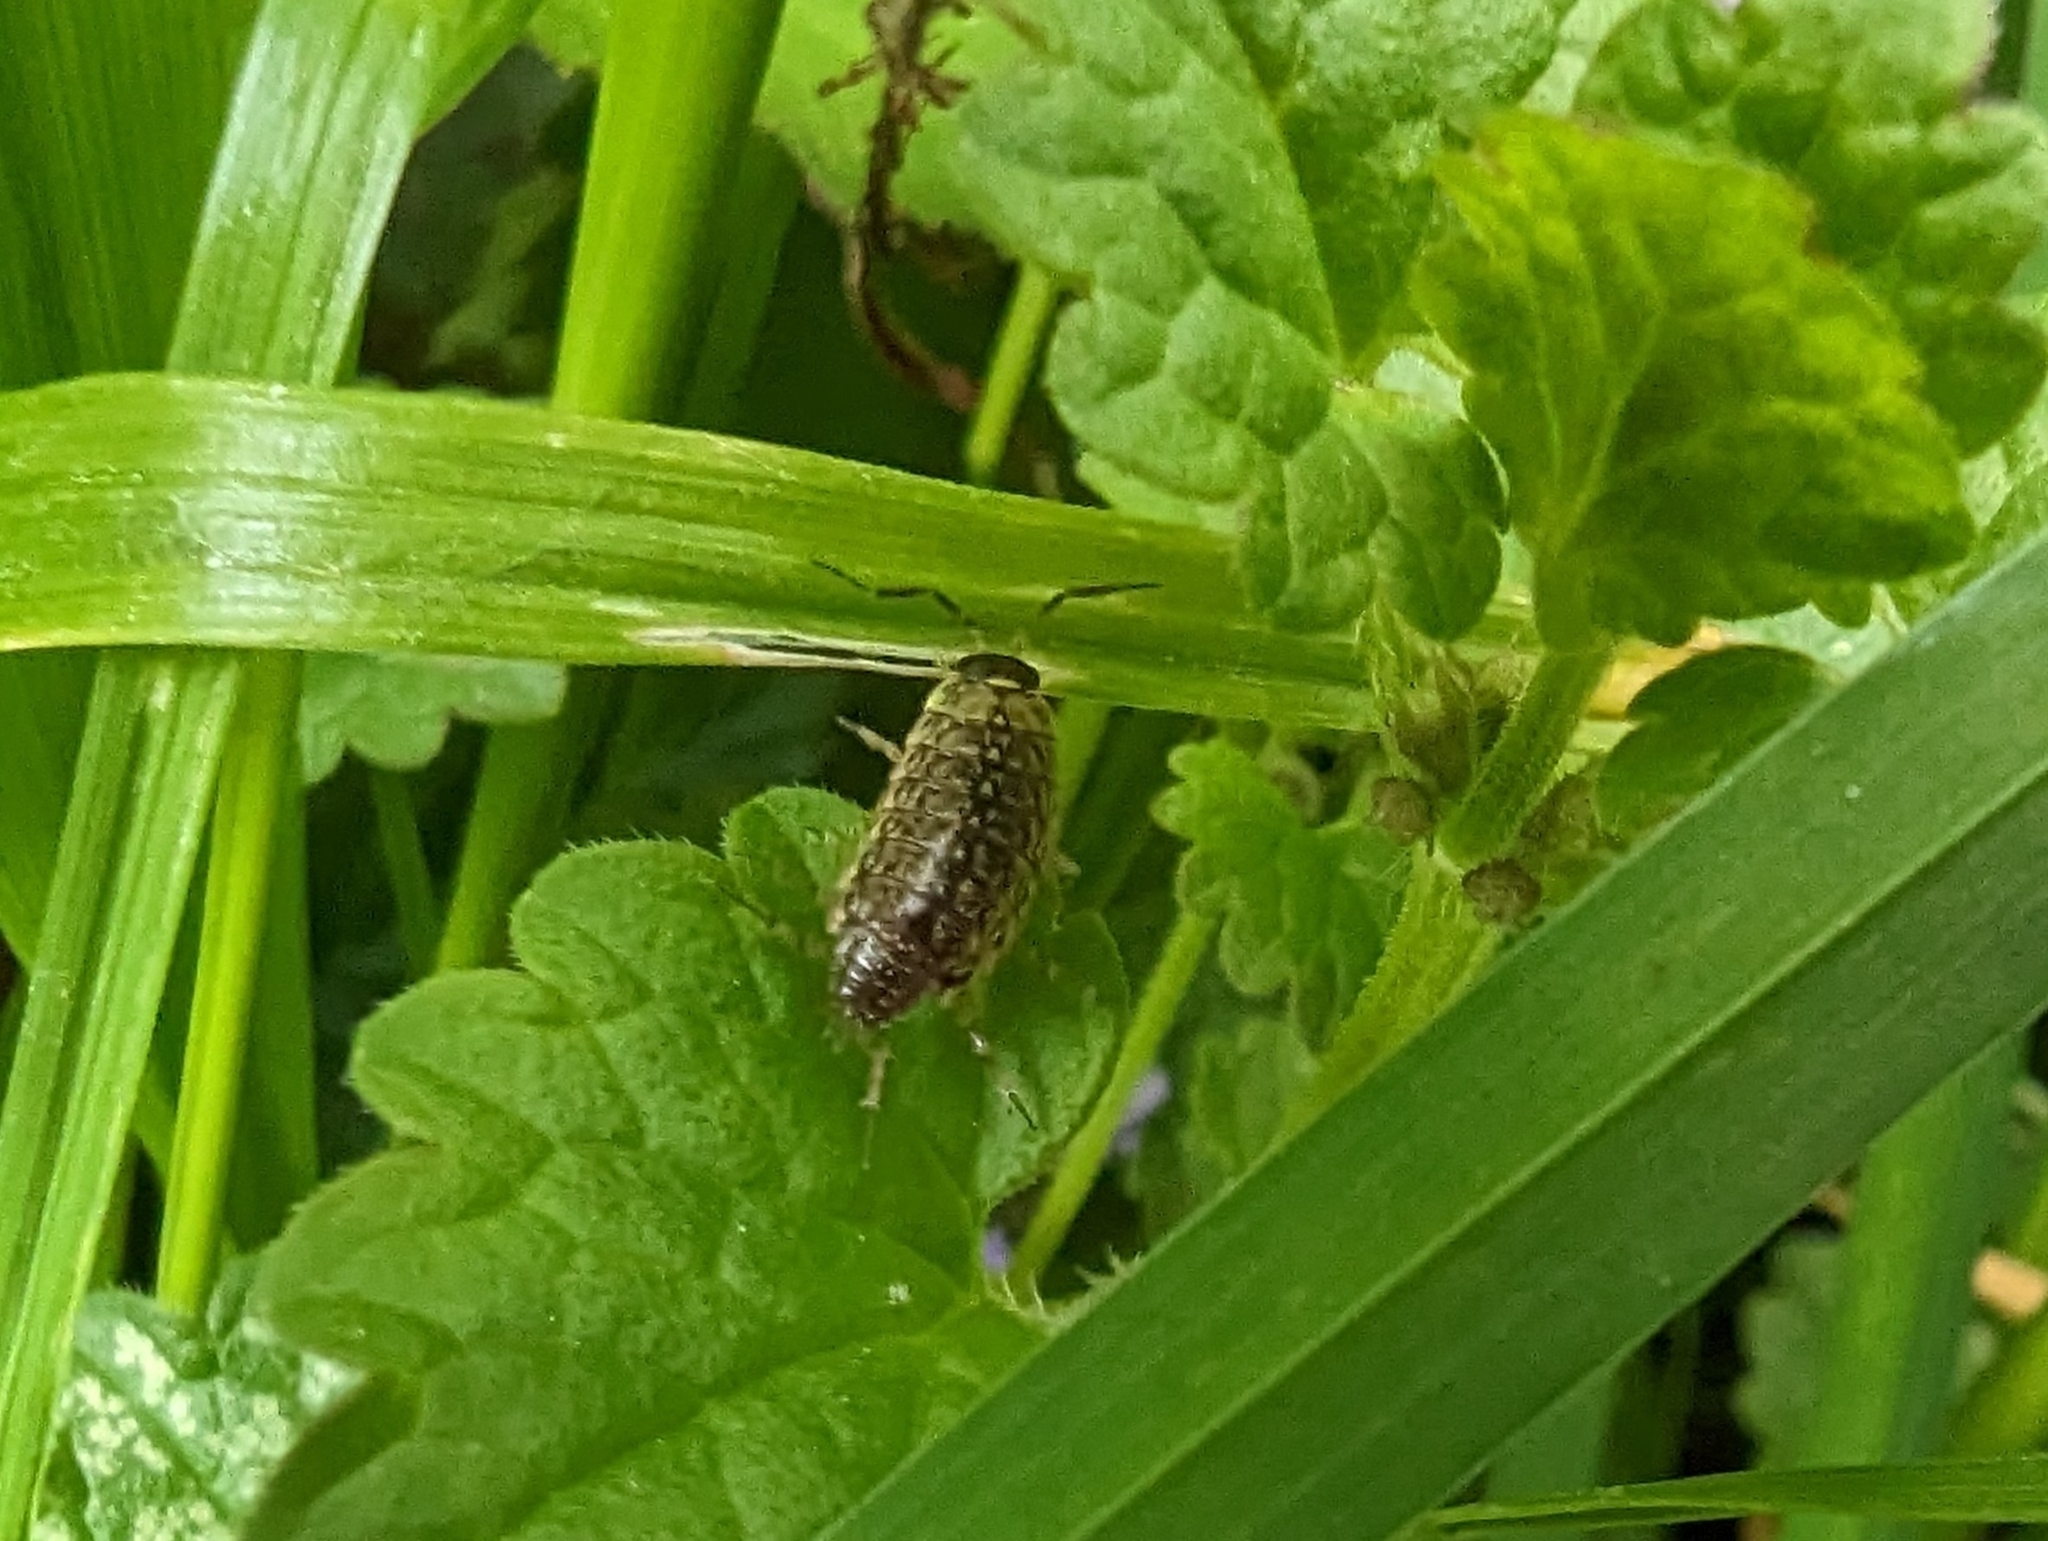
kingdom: Animalia
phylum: Arthropoda
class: Malacostraca
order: Isopoda
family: Philosciidae
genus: Philoscia
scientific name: Philoscia muscorum
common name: Common striped woodlouse
